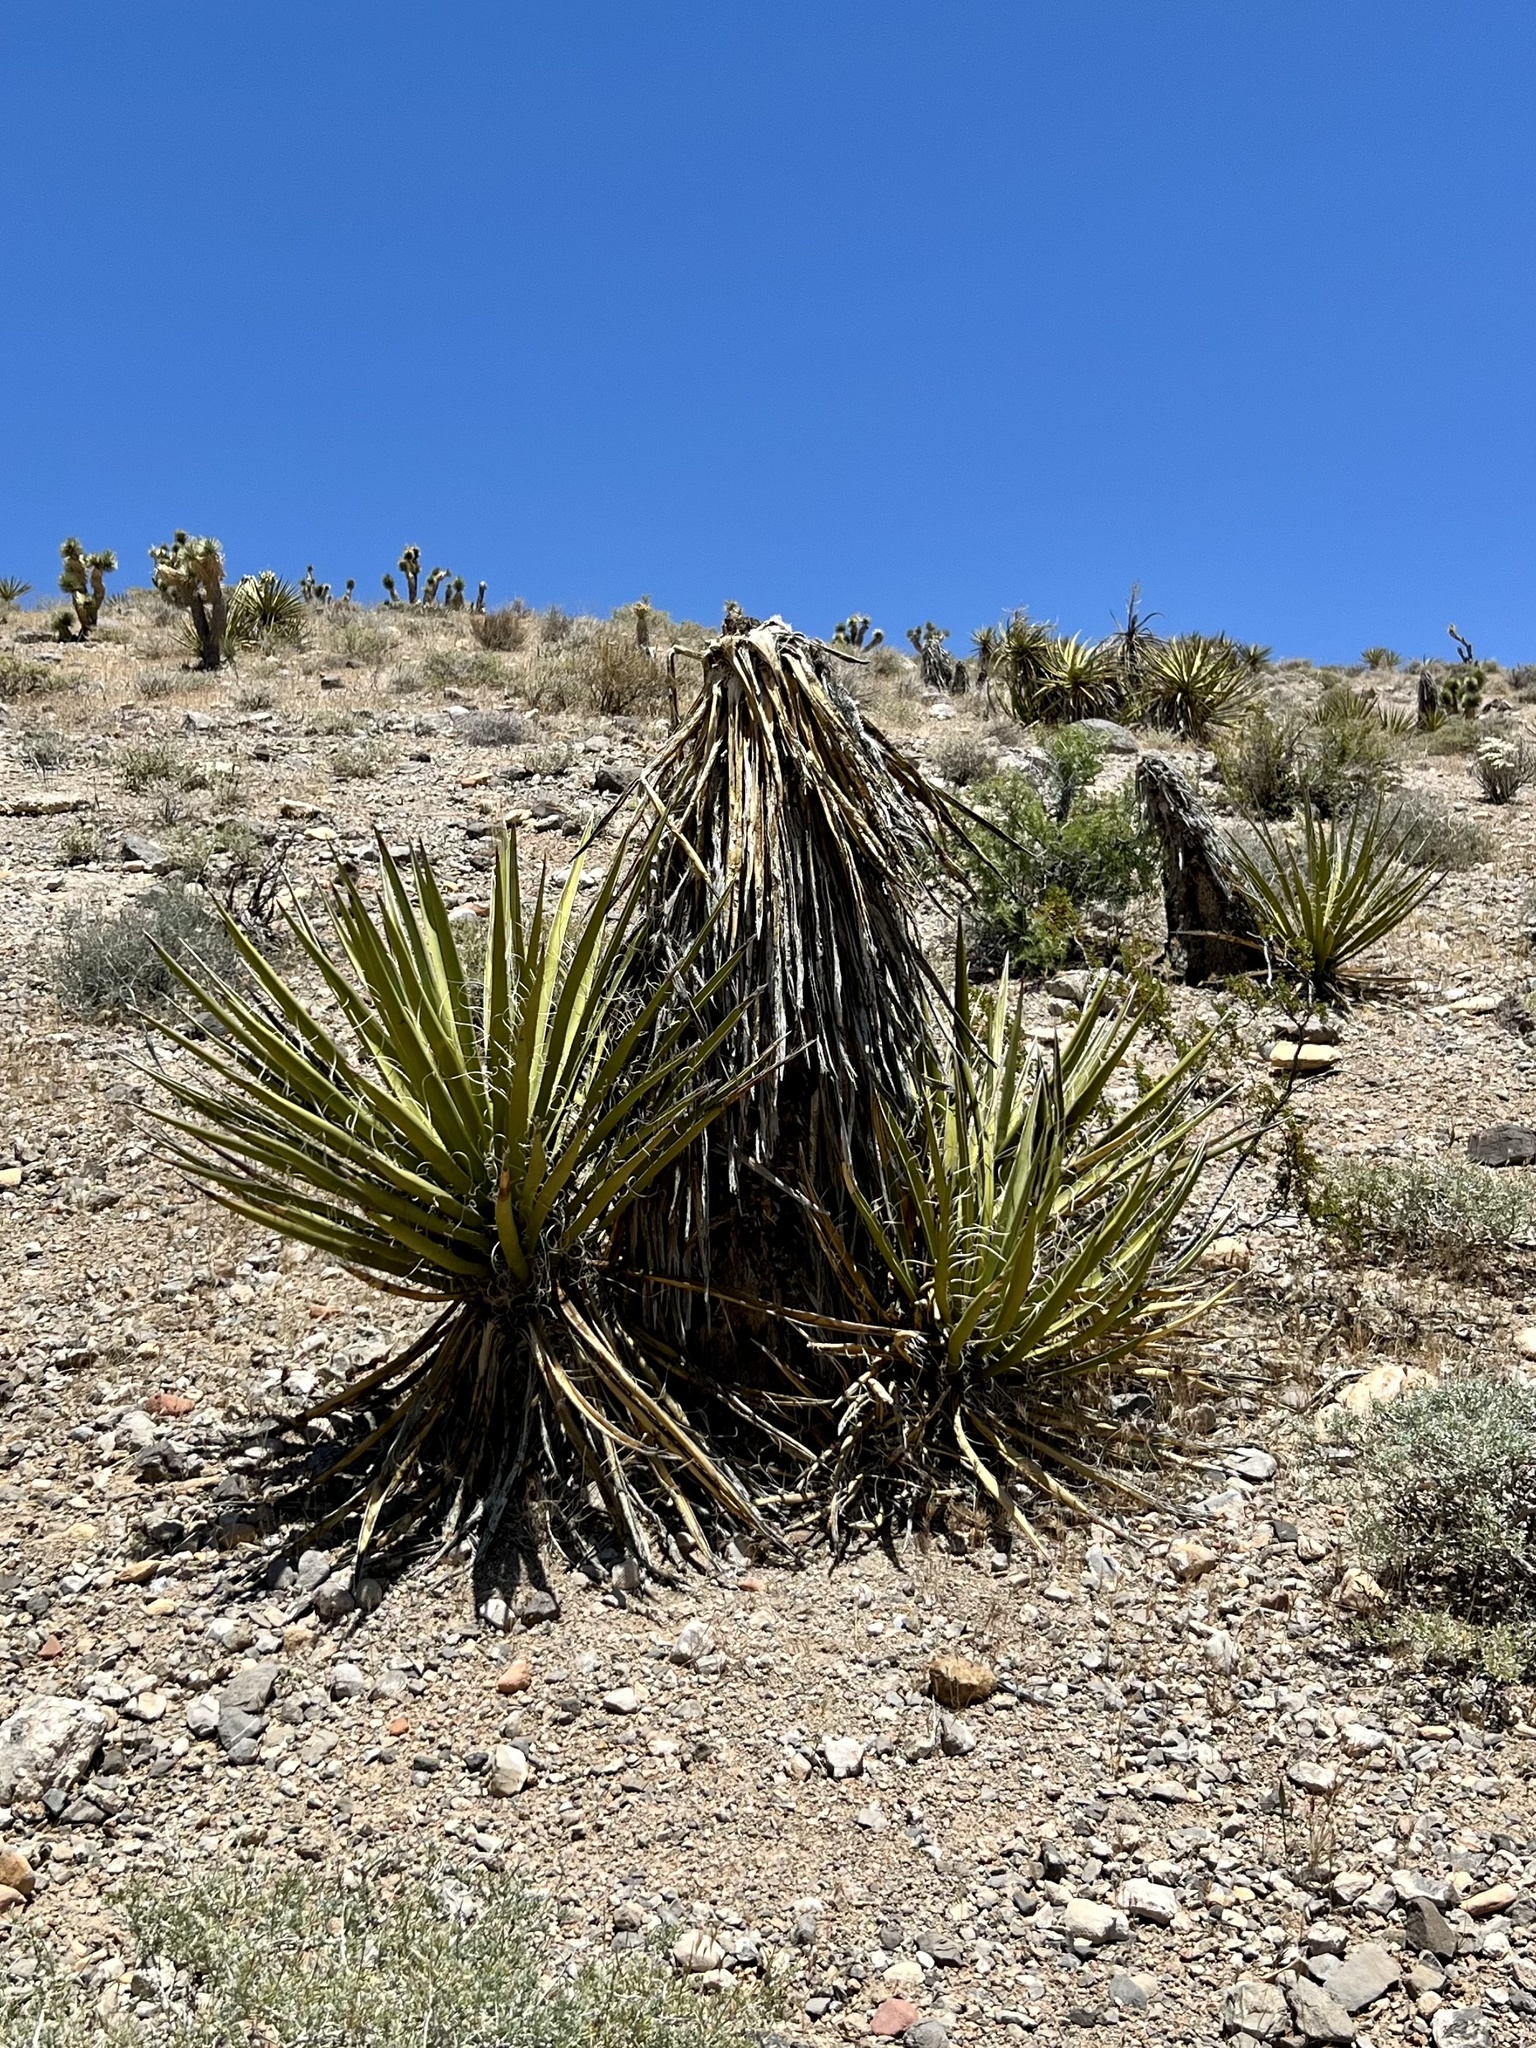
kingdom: Plantae
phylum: Tracheophyta
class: Liliopsida
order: Asparagales
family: Asparagaceae
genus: Yucca
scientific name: Yucca schidigera
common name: Mojave yucca
